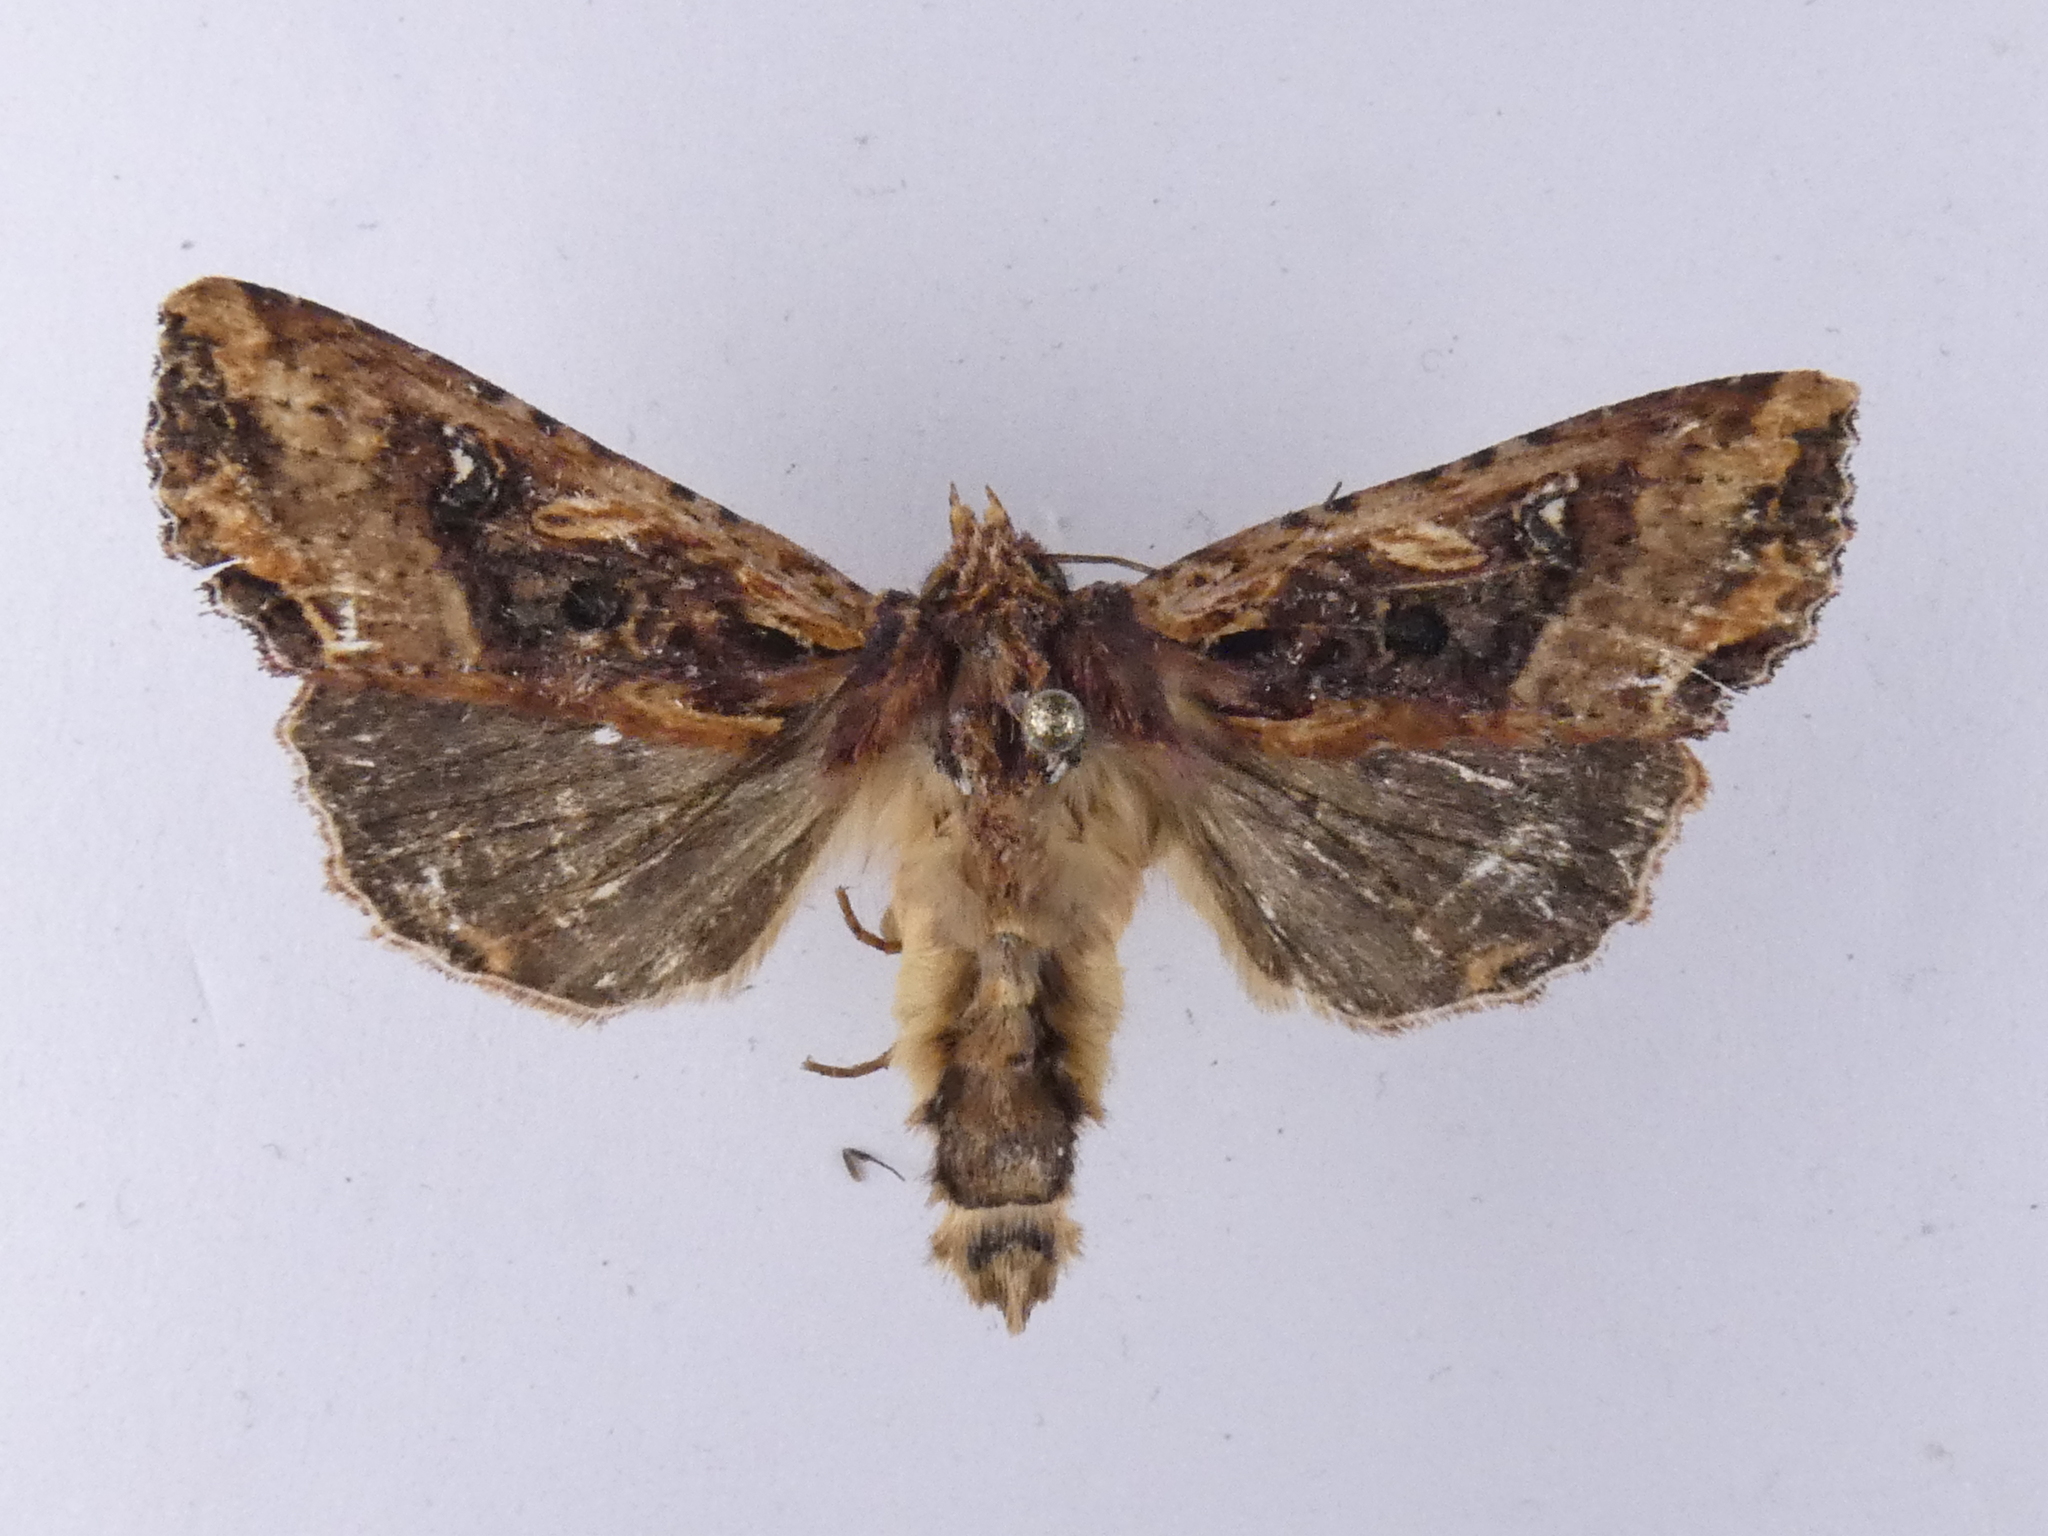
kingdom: Animalia
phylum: Arthropoda
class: Insecta
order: Lepidoptera
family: Noctuidae
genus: Meterana
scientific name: Meterana stipata
